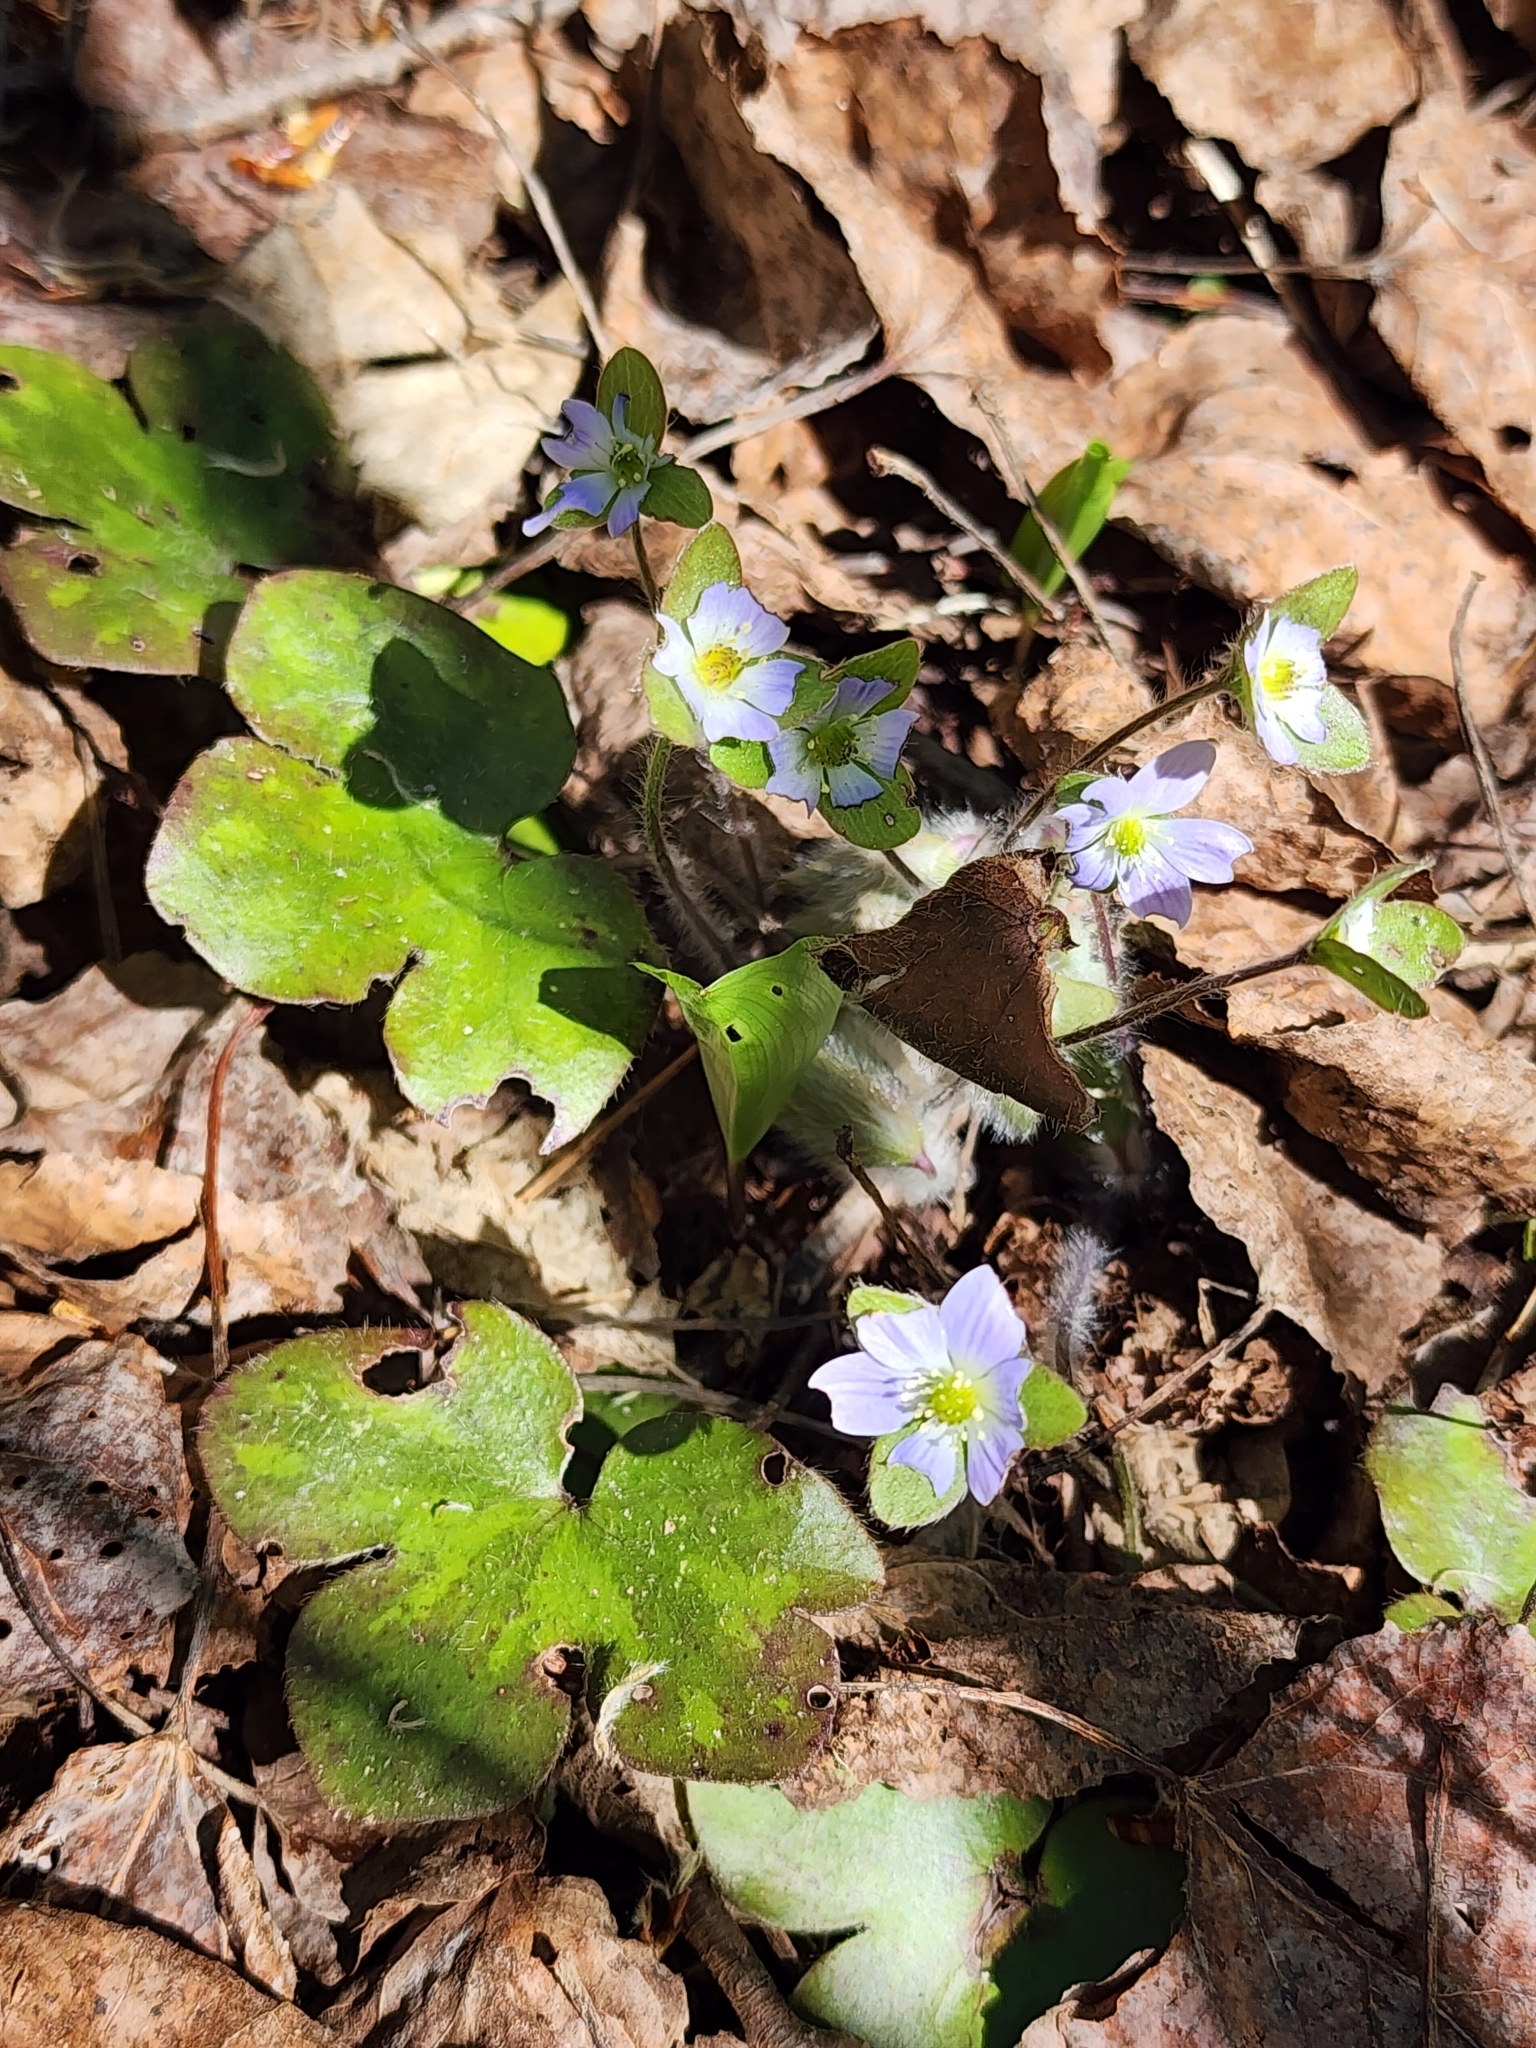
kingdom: Plantae
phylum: Tracheophyta
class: Magnoliopsida
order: Ranunculales
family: Ranunculaceae
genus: Hepatica
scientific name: Hepatica americana
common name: American hepatica
